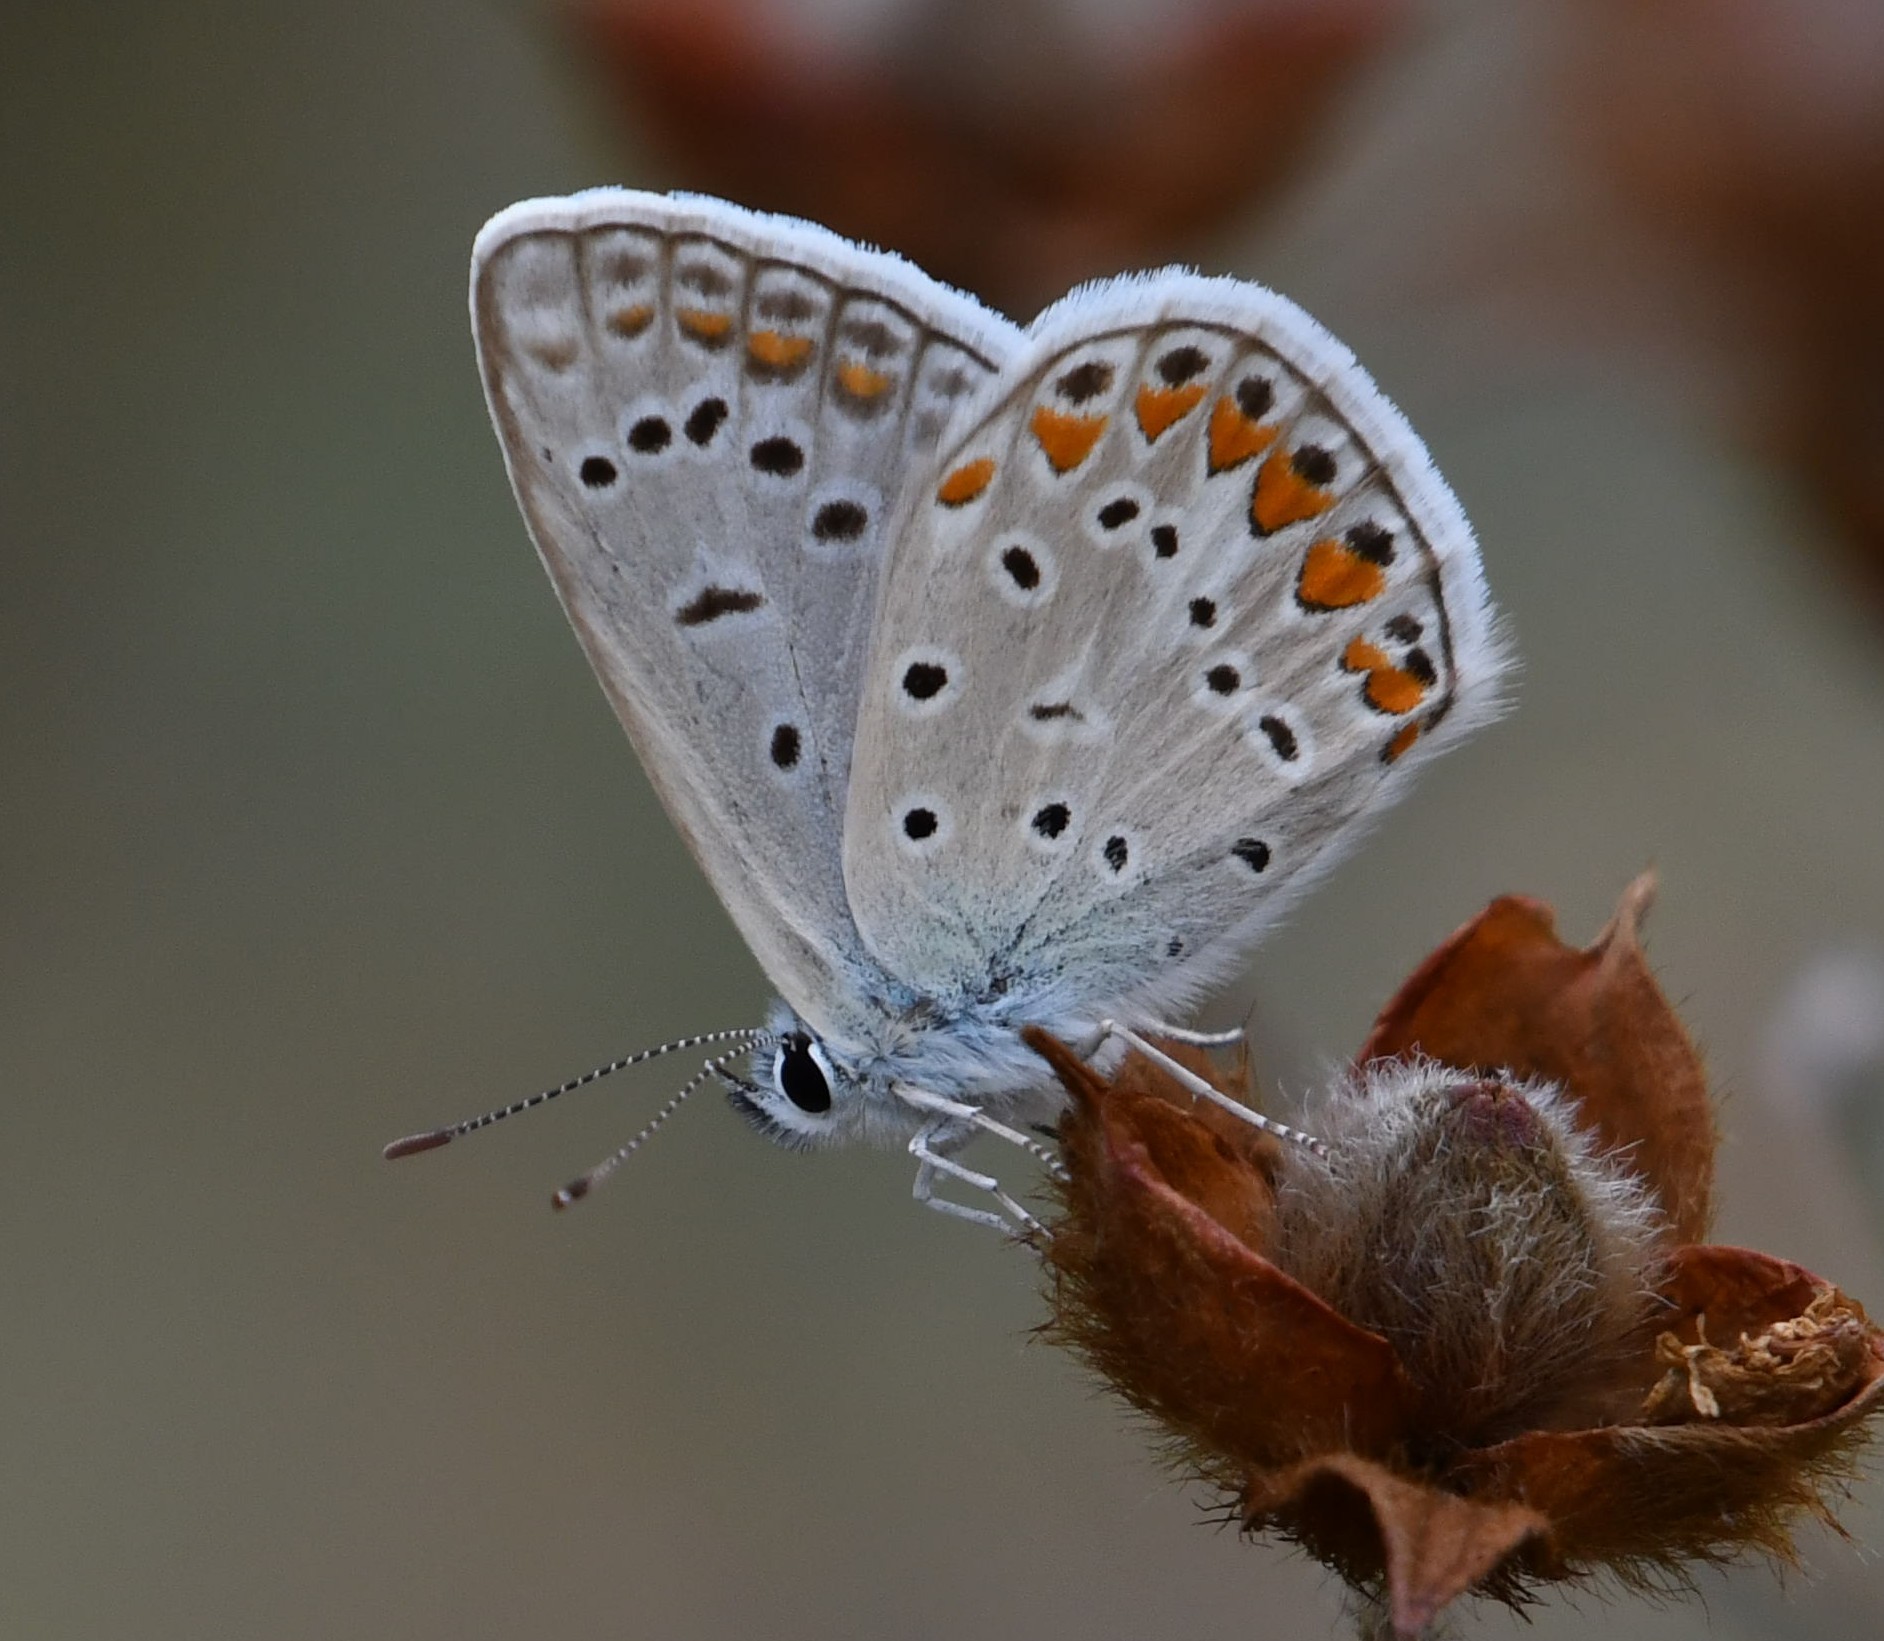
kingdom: Animalia
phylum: Arthropoda
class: Insecta
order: Lepidoptera
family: Lycaenidae
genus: Polyommatus
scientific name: Polyommatus icarus
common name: Common blue
